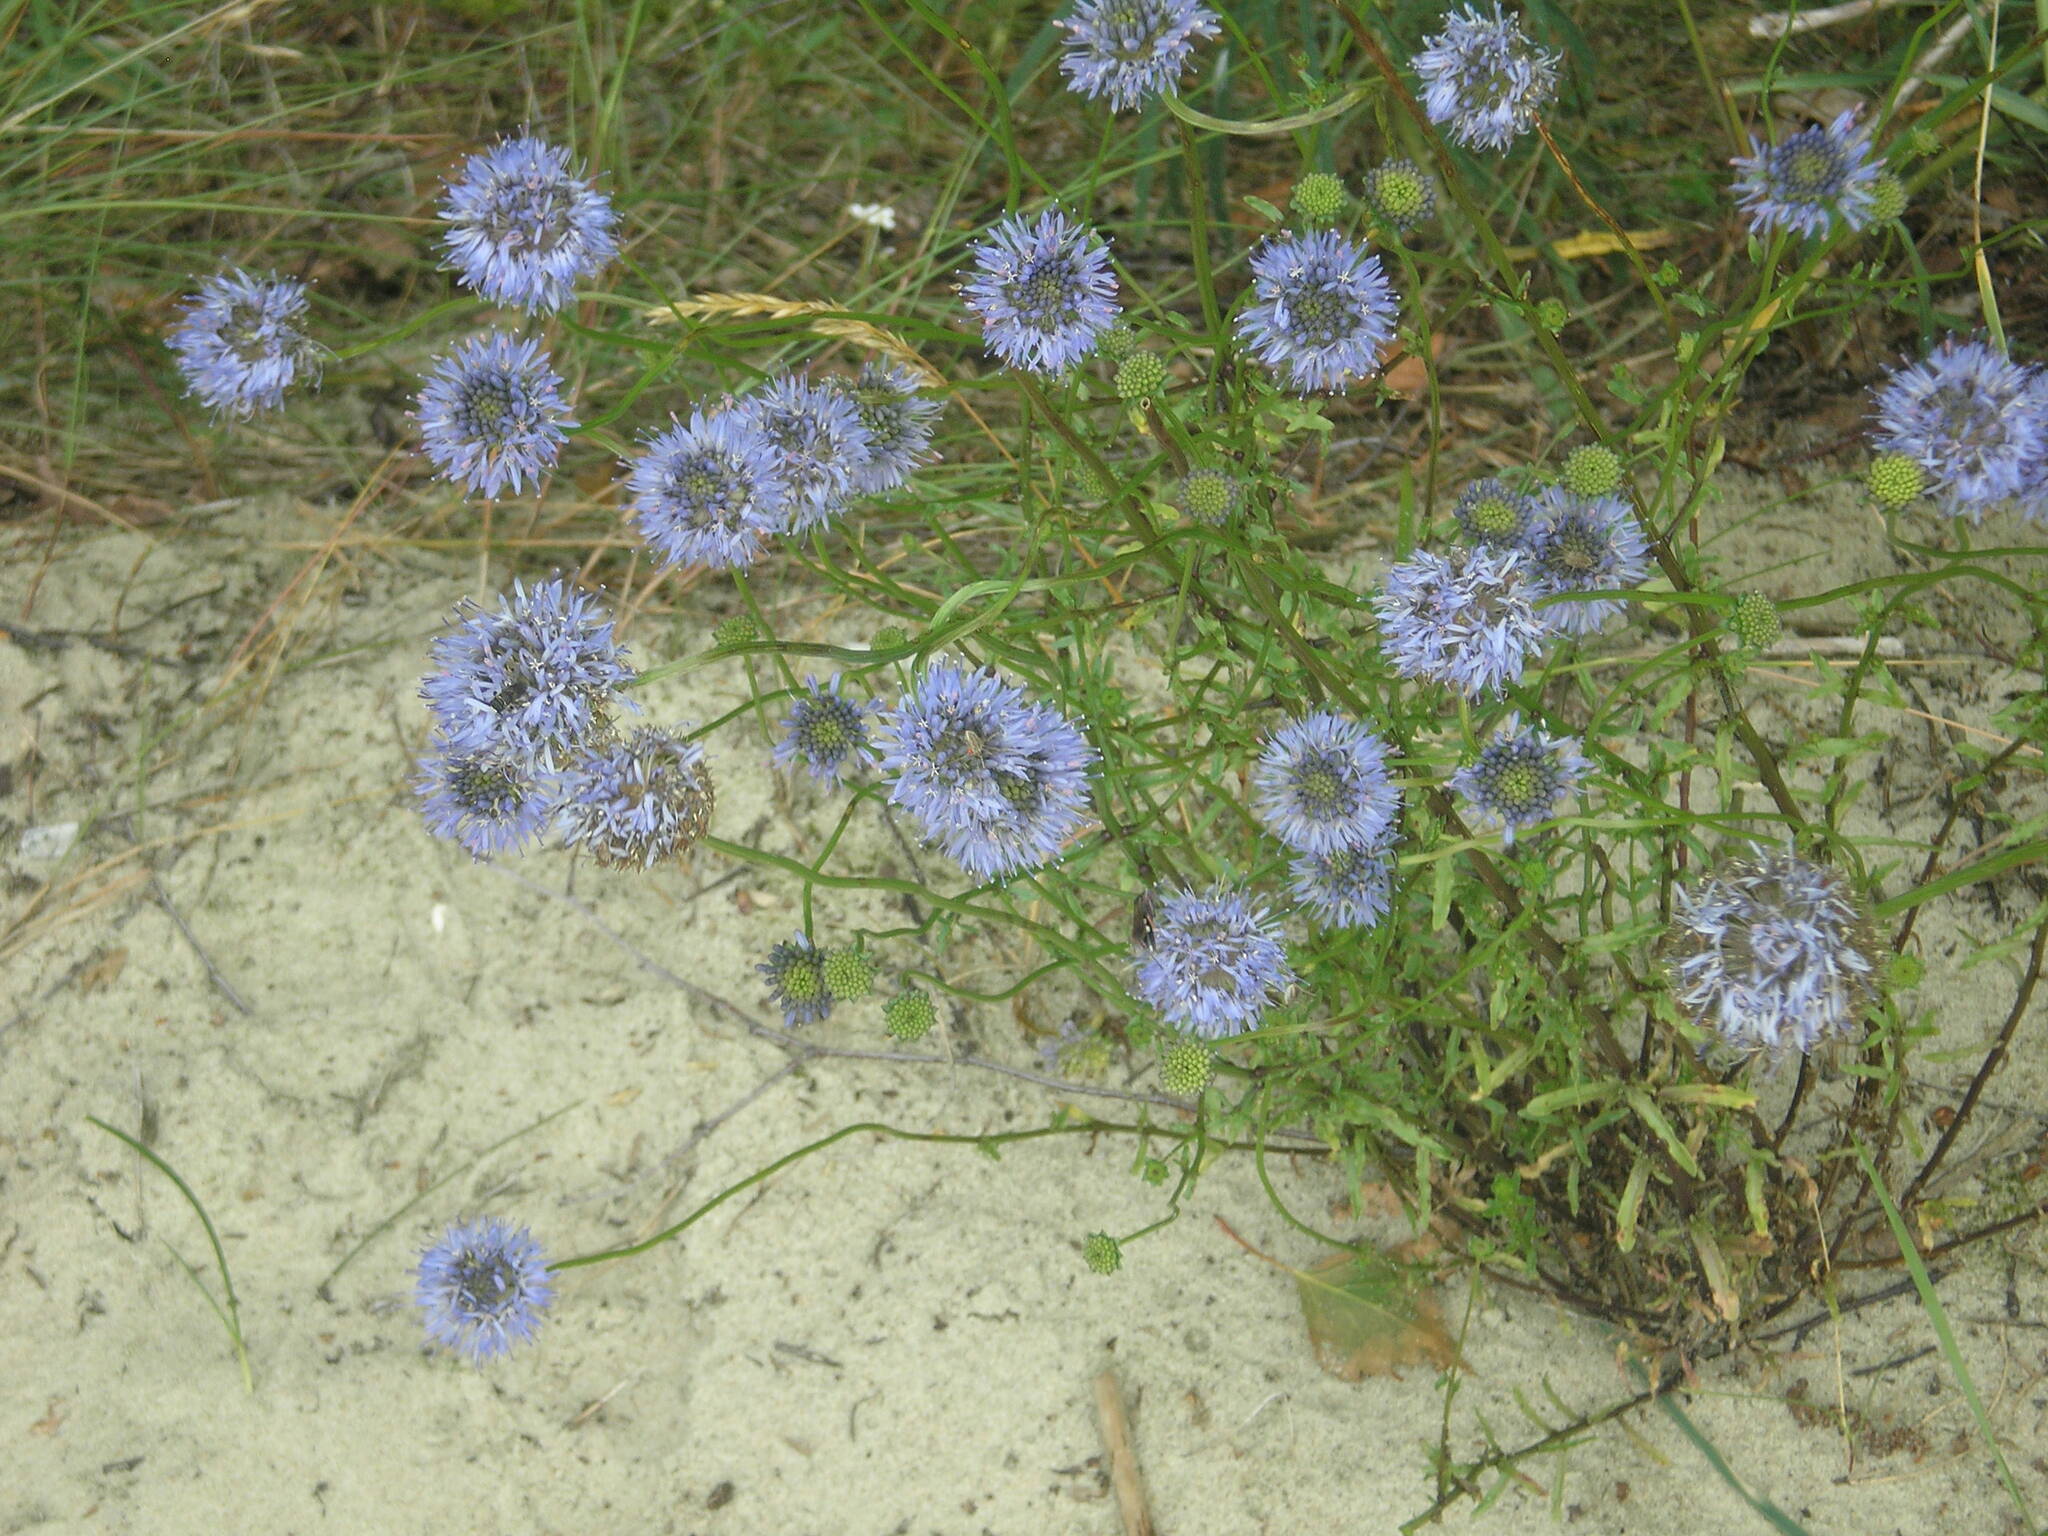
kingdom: Plantae
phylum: Tracheophyta
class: Magnoliopsida
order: Asterales
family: Campanulaceae
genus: Jasione
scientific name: Jasione montana
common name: Sheep's-bit
